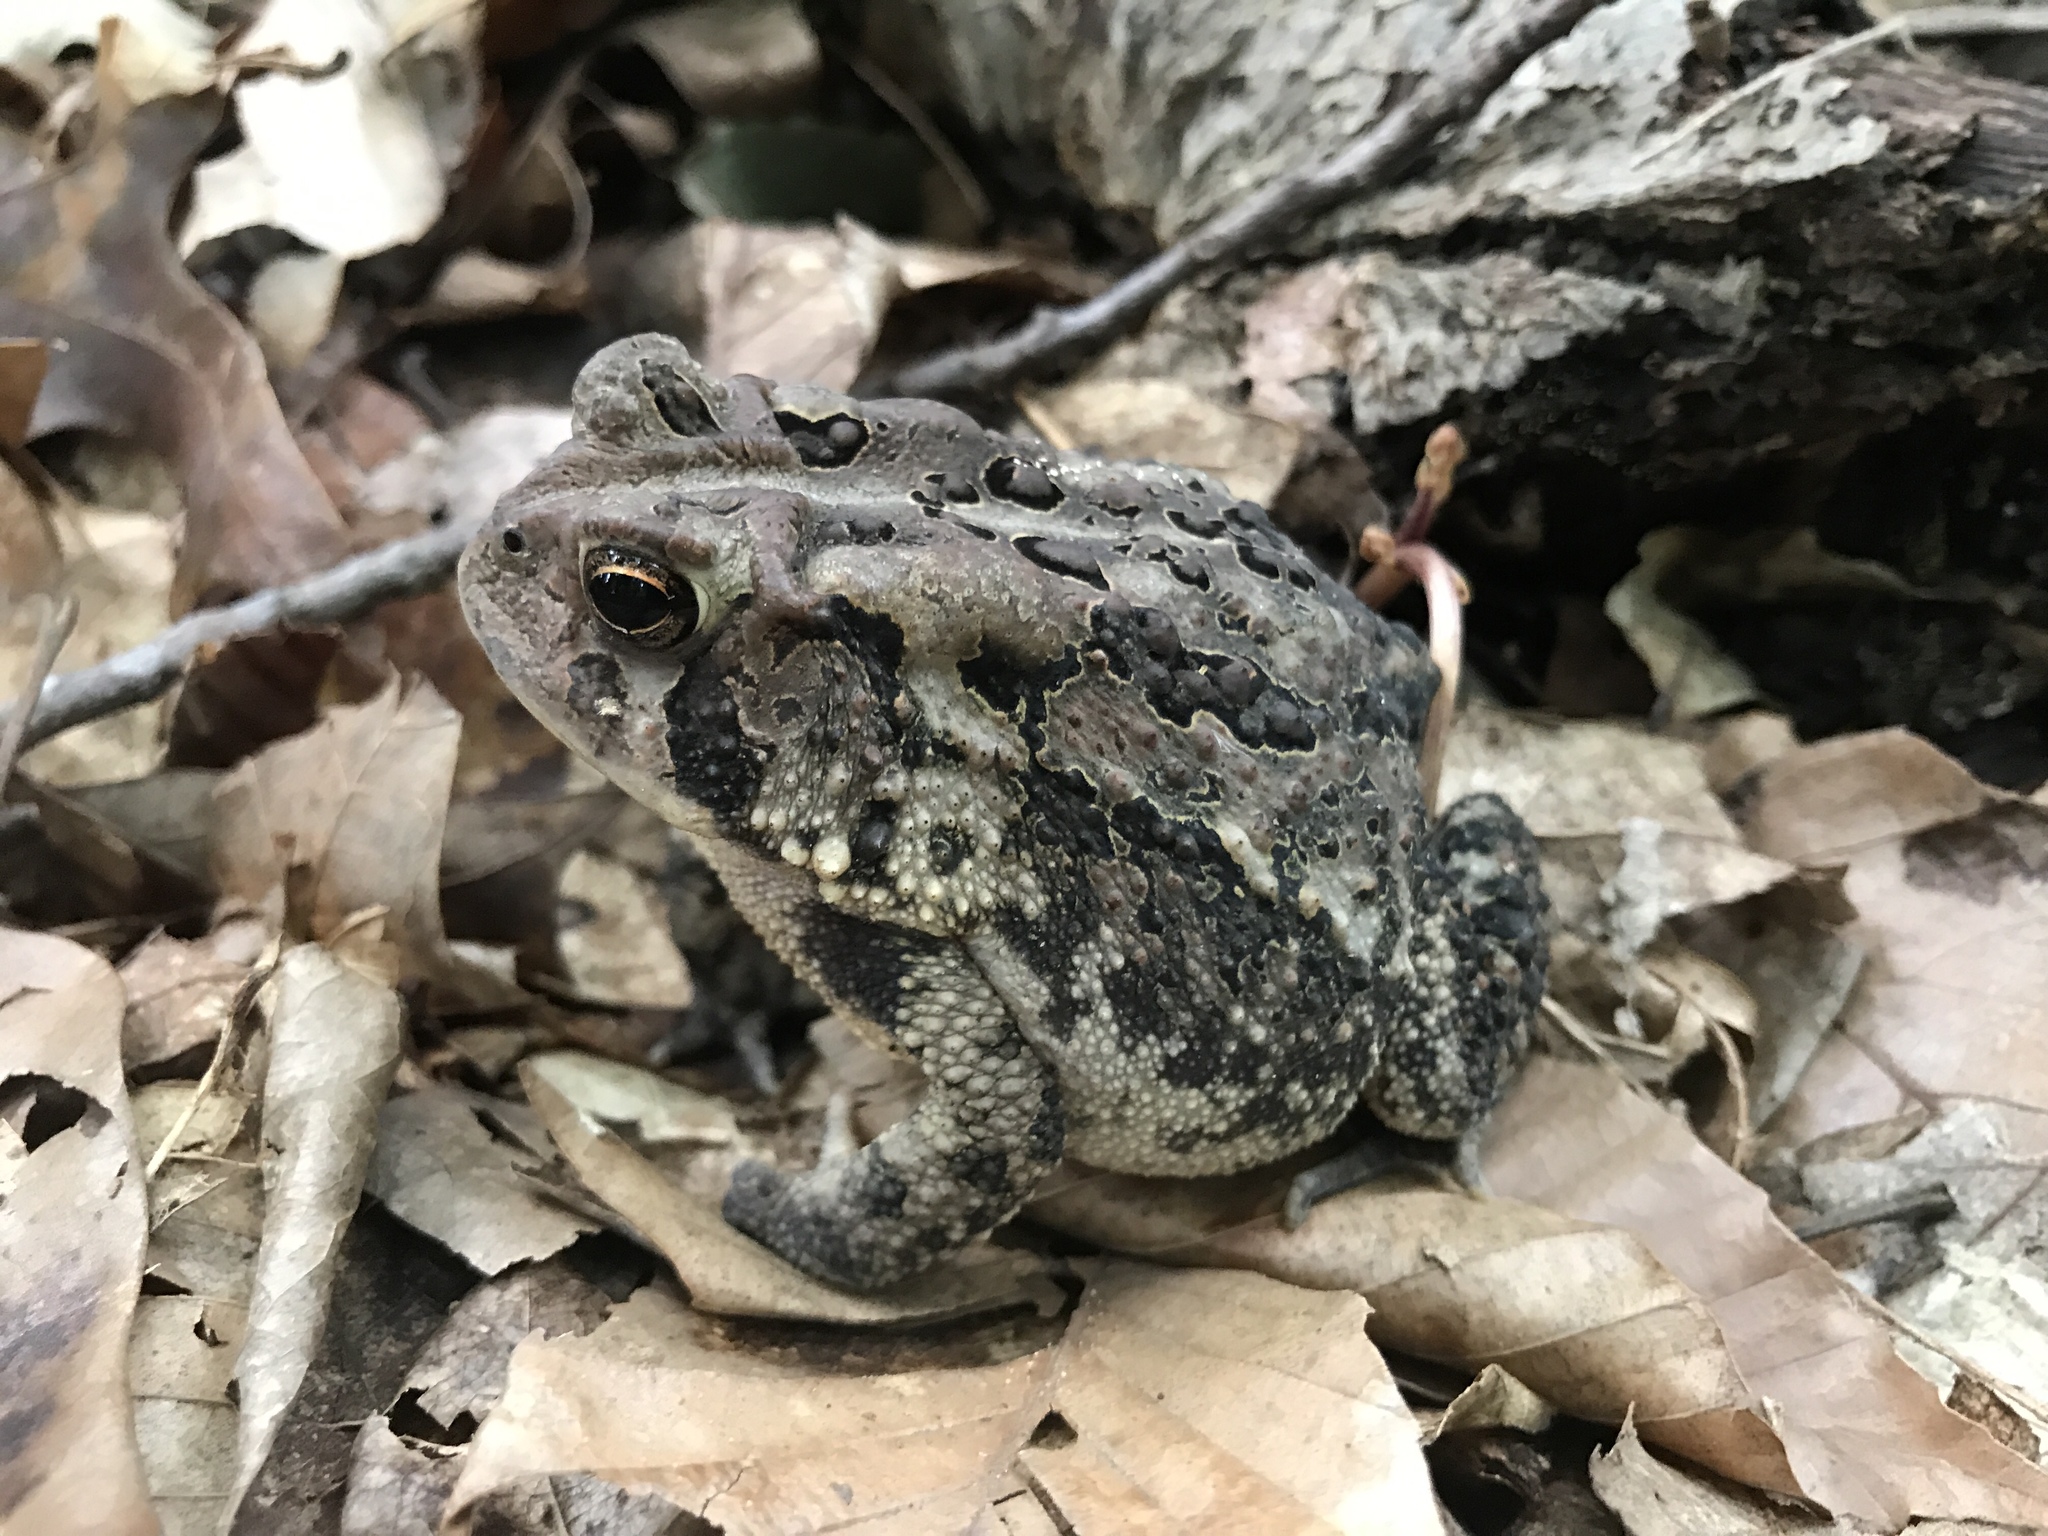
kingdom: Animalia
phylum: Chordata
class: Amphibia
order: Anura
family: Bufonidae
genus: Anaxyrus
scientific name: Anaxyrus americanus
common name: American toad
